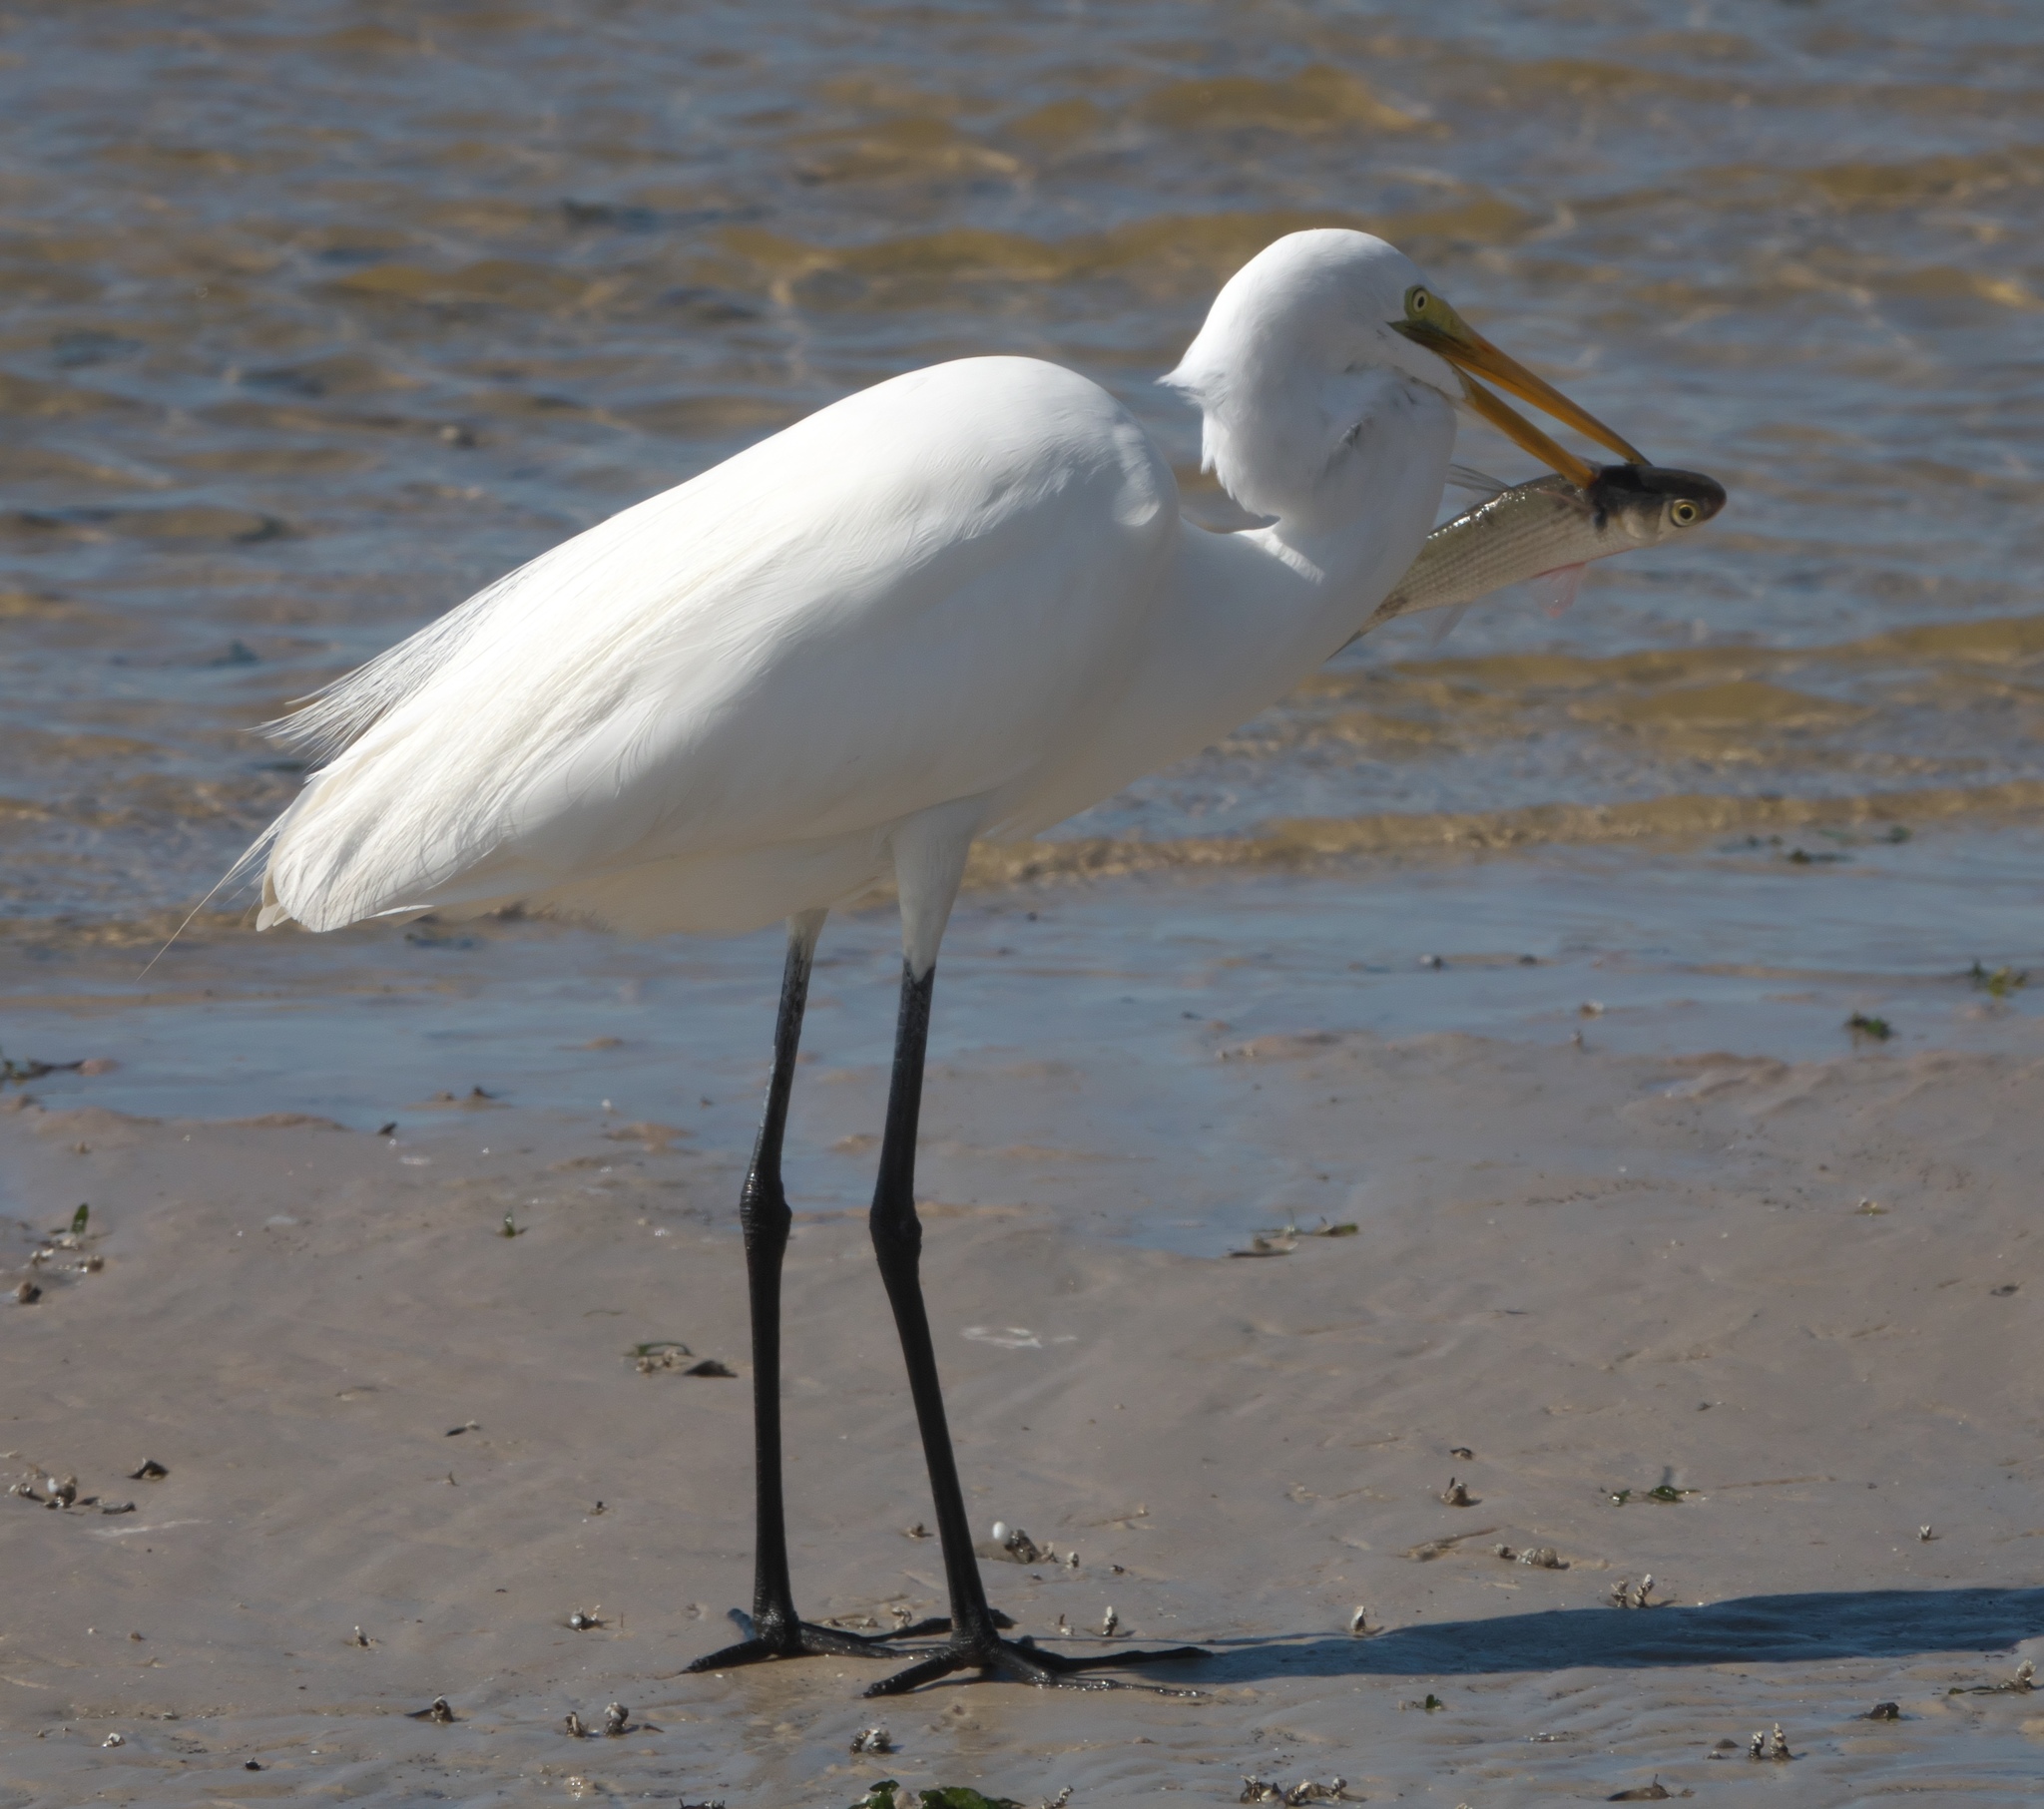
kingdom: Animalia
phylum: Chordata
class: Aves
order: Pelecaniformes
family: Ardeidae
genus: Ardea
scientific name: Ardea alba
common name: Great egret
